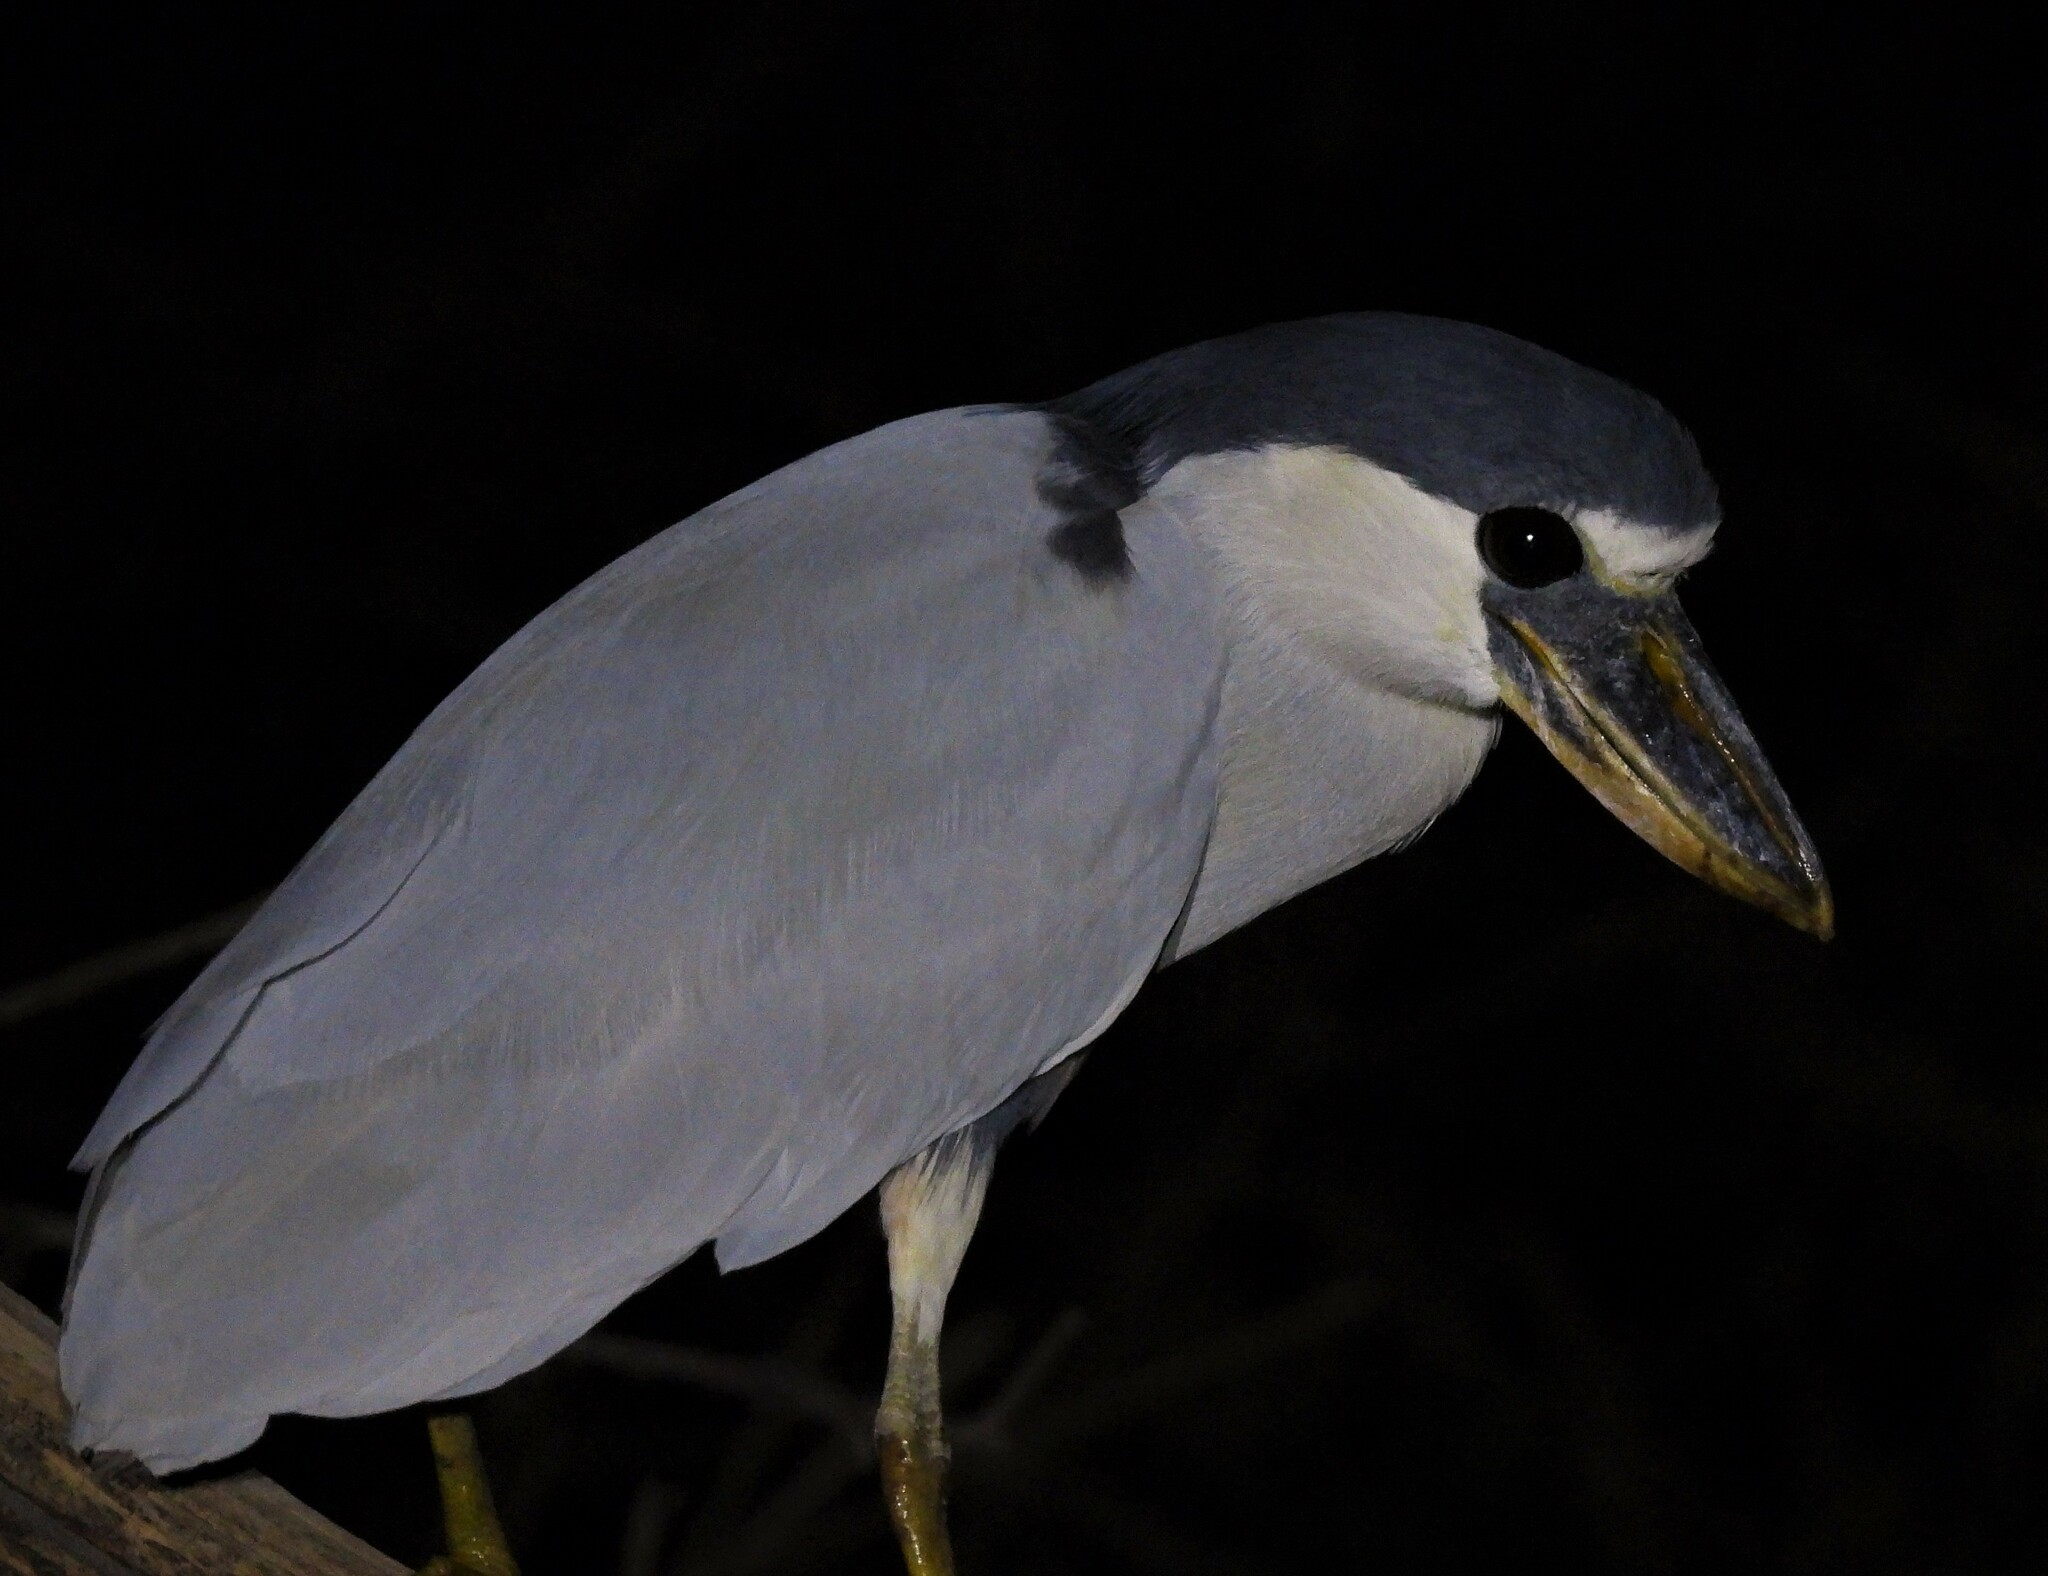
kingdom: Animalia
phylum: Chordata
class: Aves
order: Pelecaniformes
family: Ardeidae
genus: Cochlearius
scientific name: Cochlearius cochlearius
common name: Boat-billed heron
